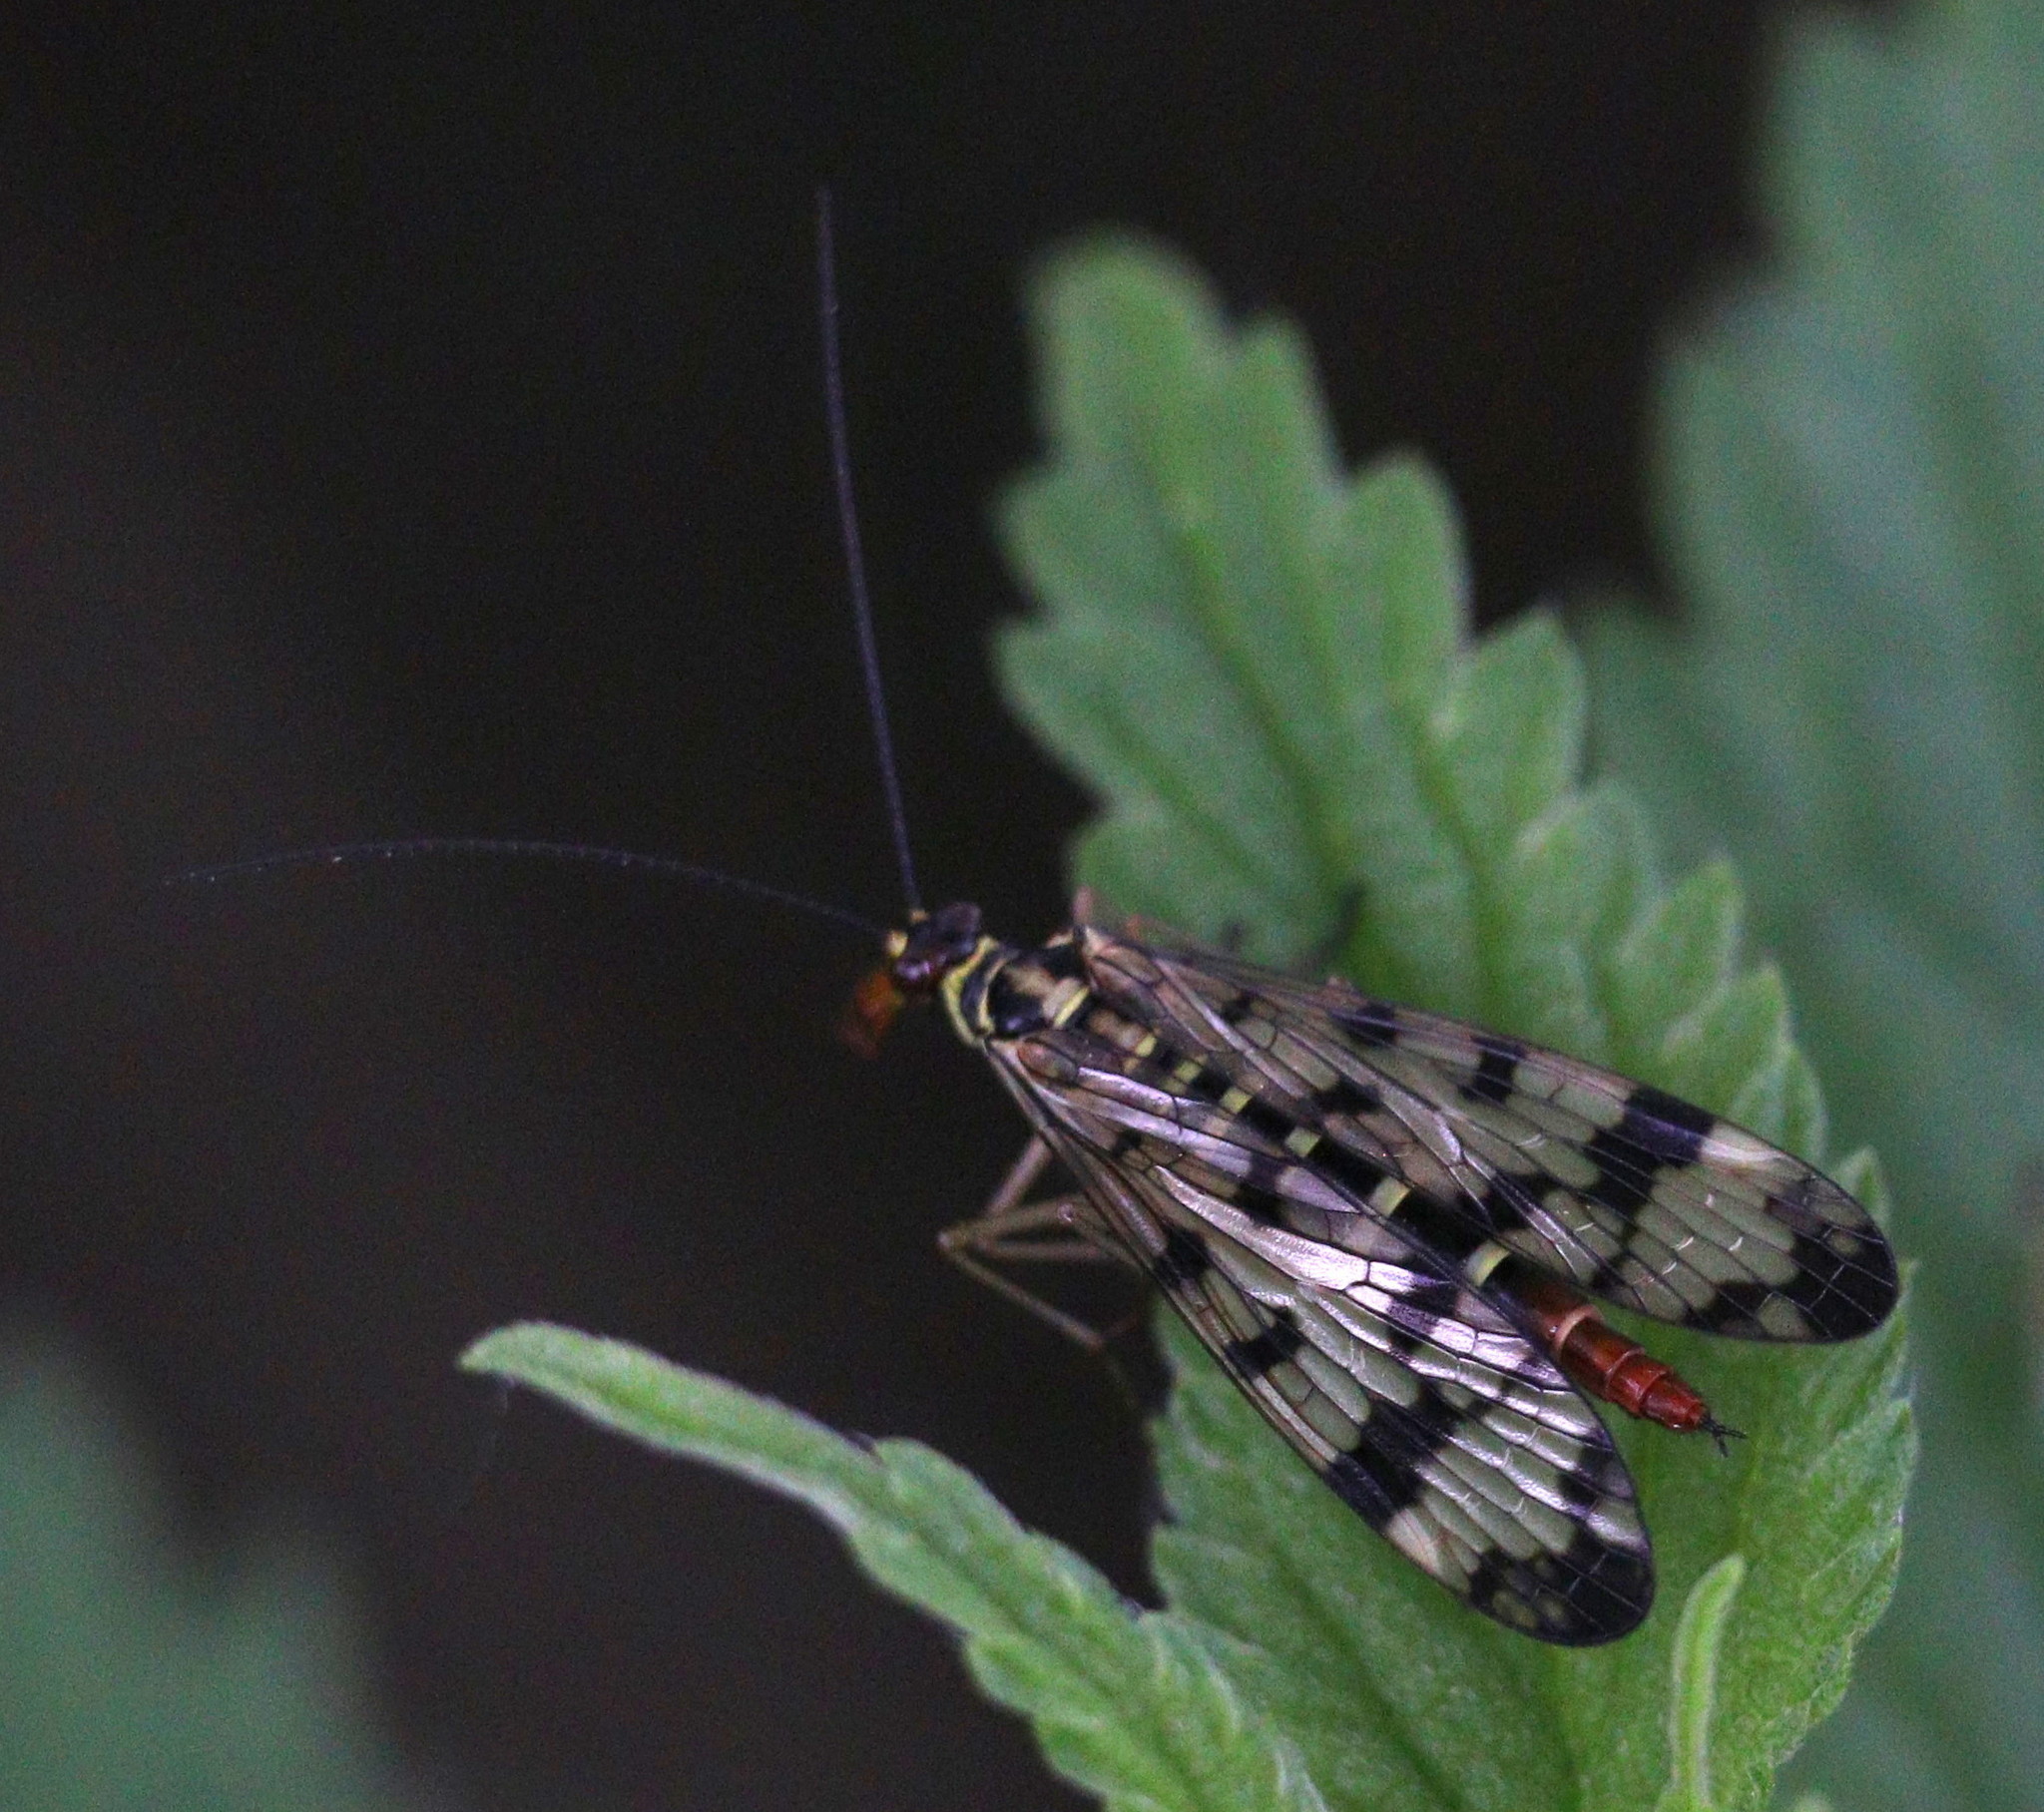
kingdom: Animalia
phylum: Arthropoda
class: Insecta
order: Mecoptera
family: Panorpidae
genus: Panorpa
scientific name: Panorpa communis
